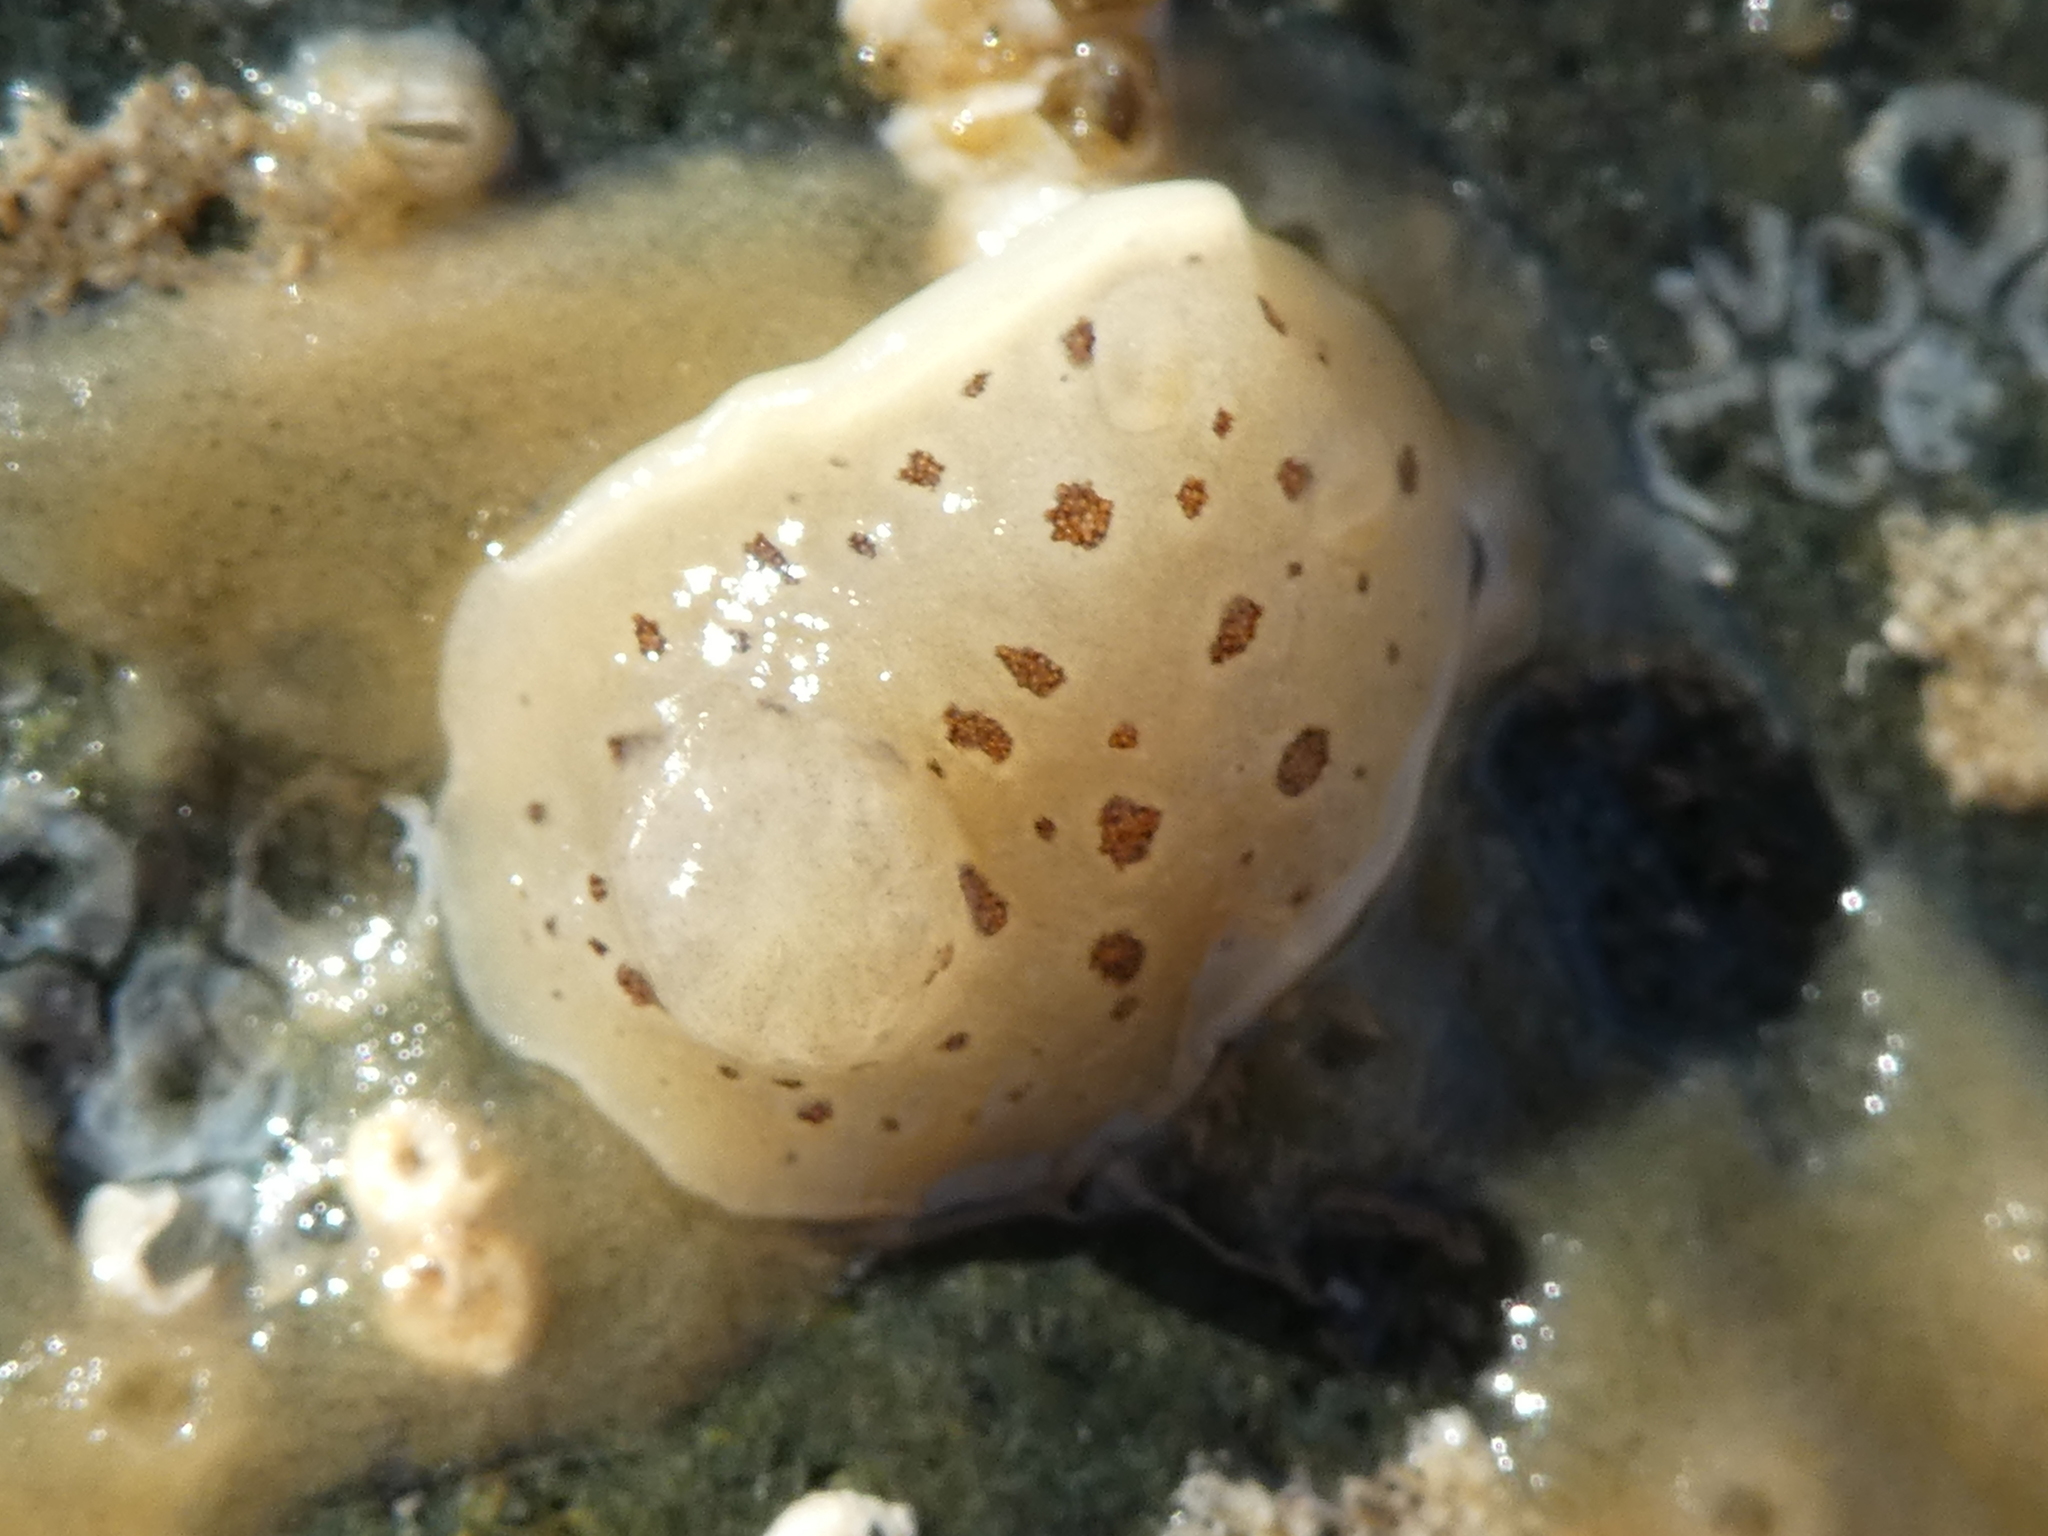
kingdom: Animalia
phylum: Mollusca
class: Gastropoda
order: Nudibranchia
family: Discodorididae
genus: Diaulula
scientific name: Diaulula odonoghuei
